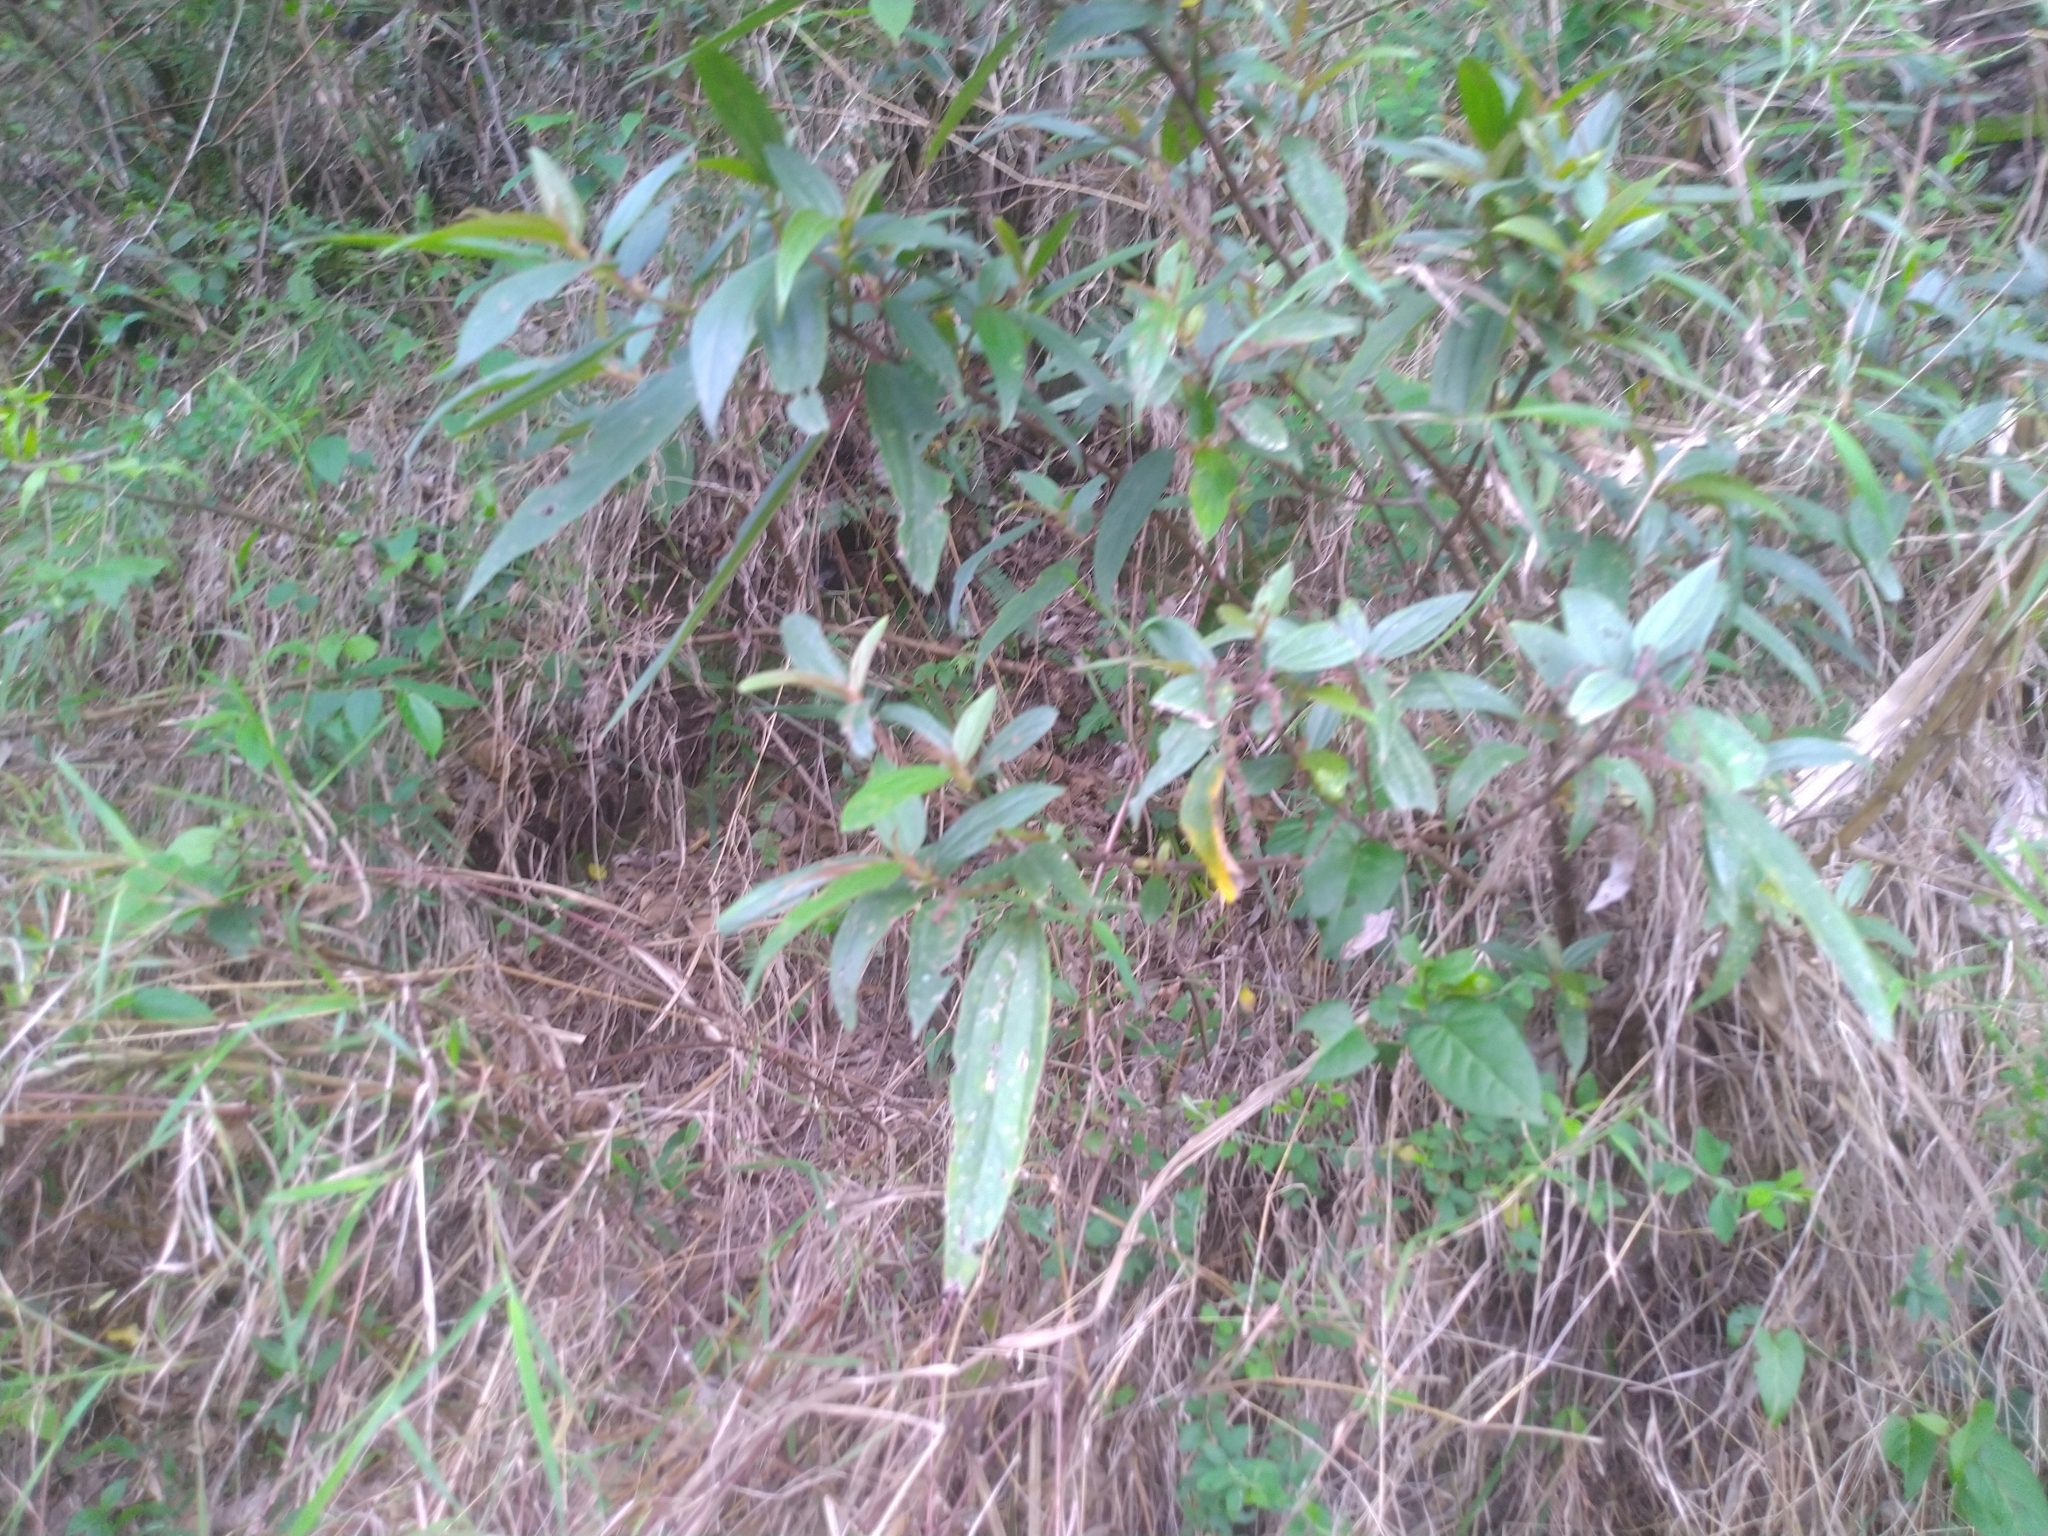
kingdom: Plantae
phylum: Tracheophyta
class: Magnoliopsida
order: Rosales
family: Urticaceae
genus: Boehmeria
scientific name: Boehmeria densiflora
